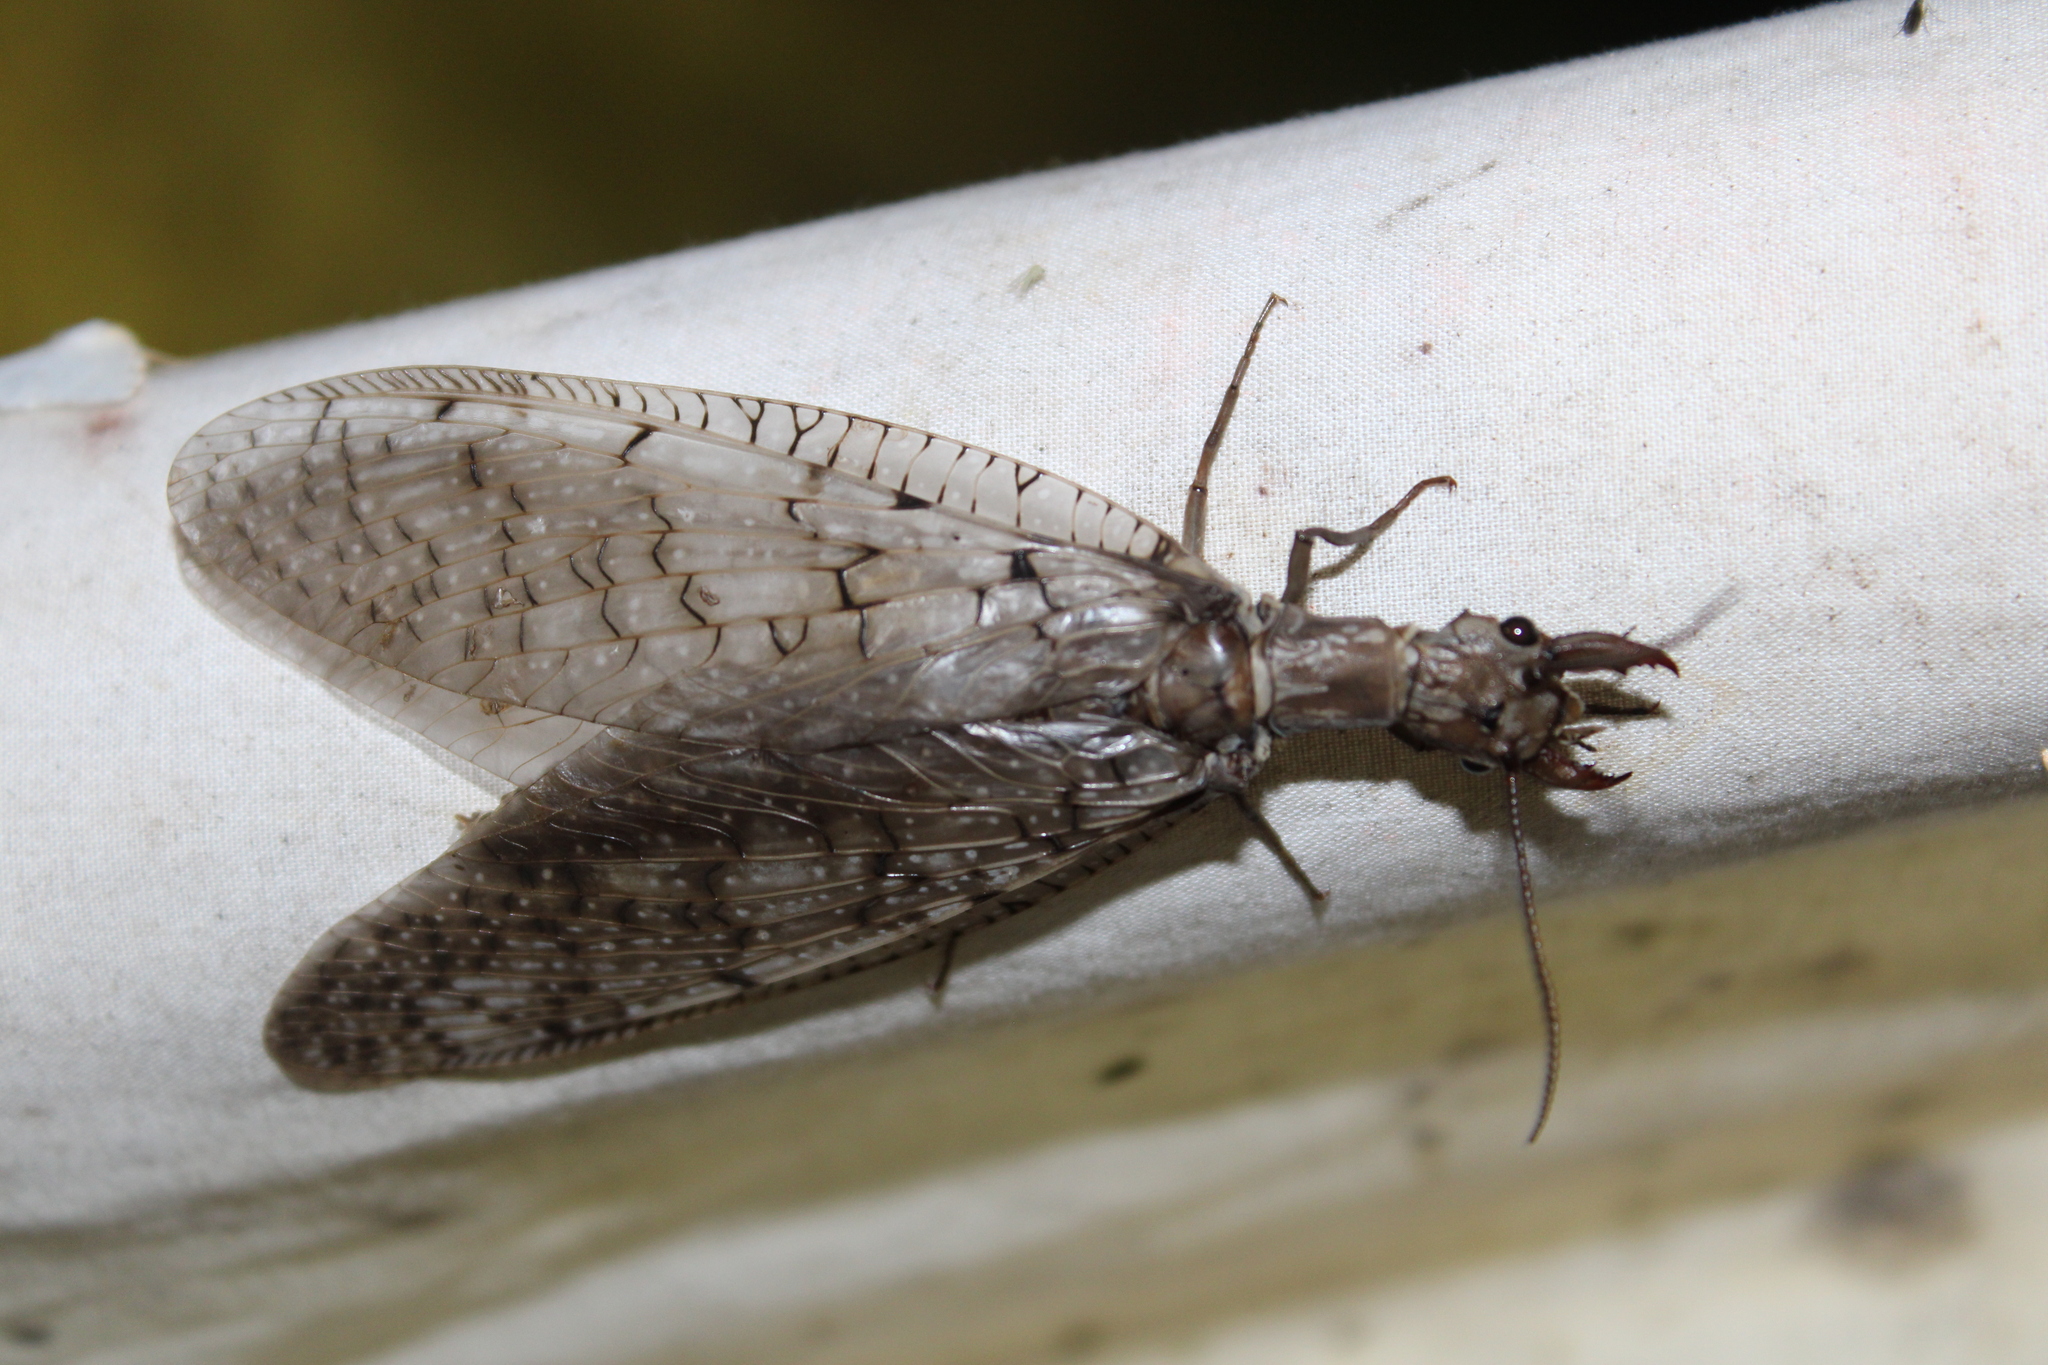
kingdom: Animalia
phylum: Arthropoda
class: Insecta
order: Megaloptera
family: Corydalidae
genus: Corydalus
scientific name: Corydalus cornutus
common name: Dobsonfly
